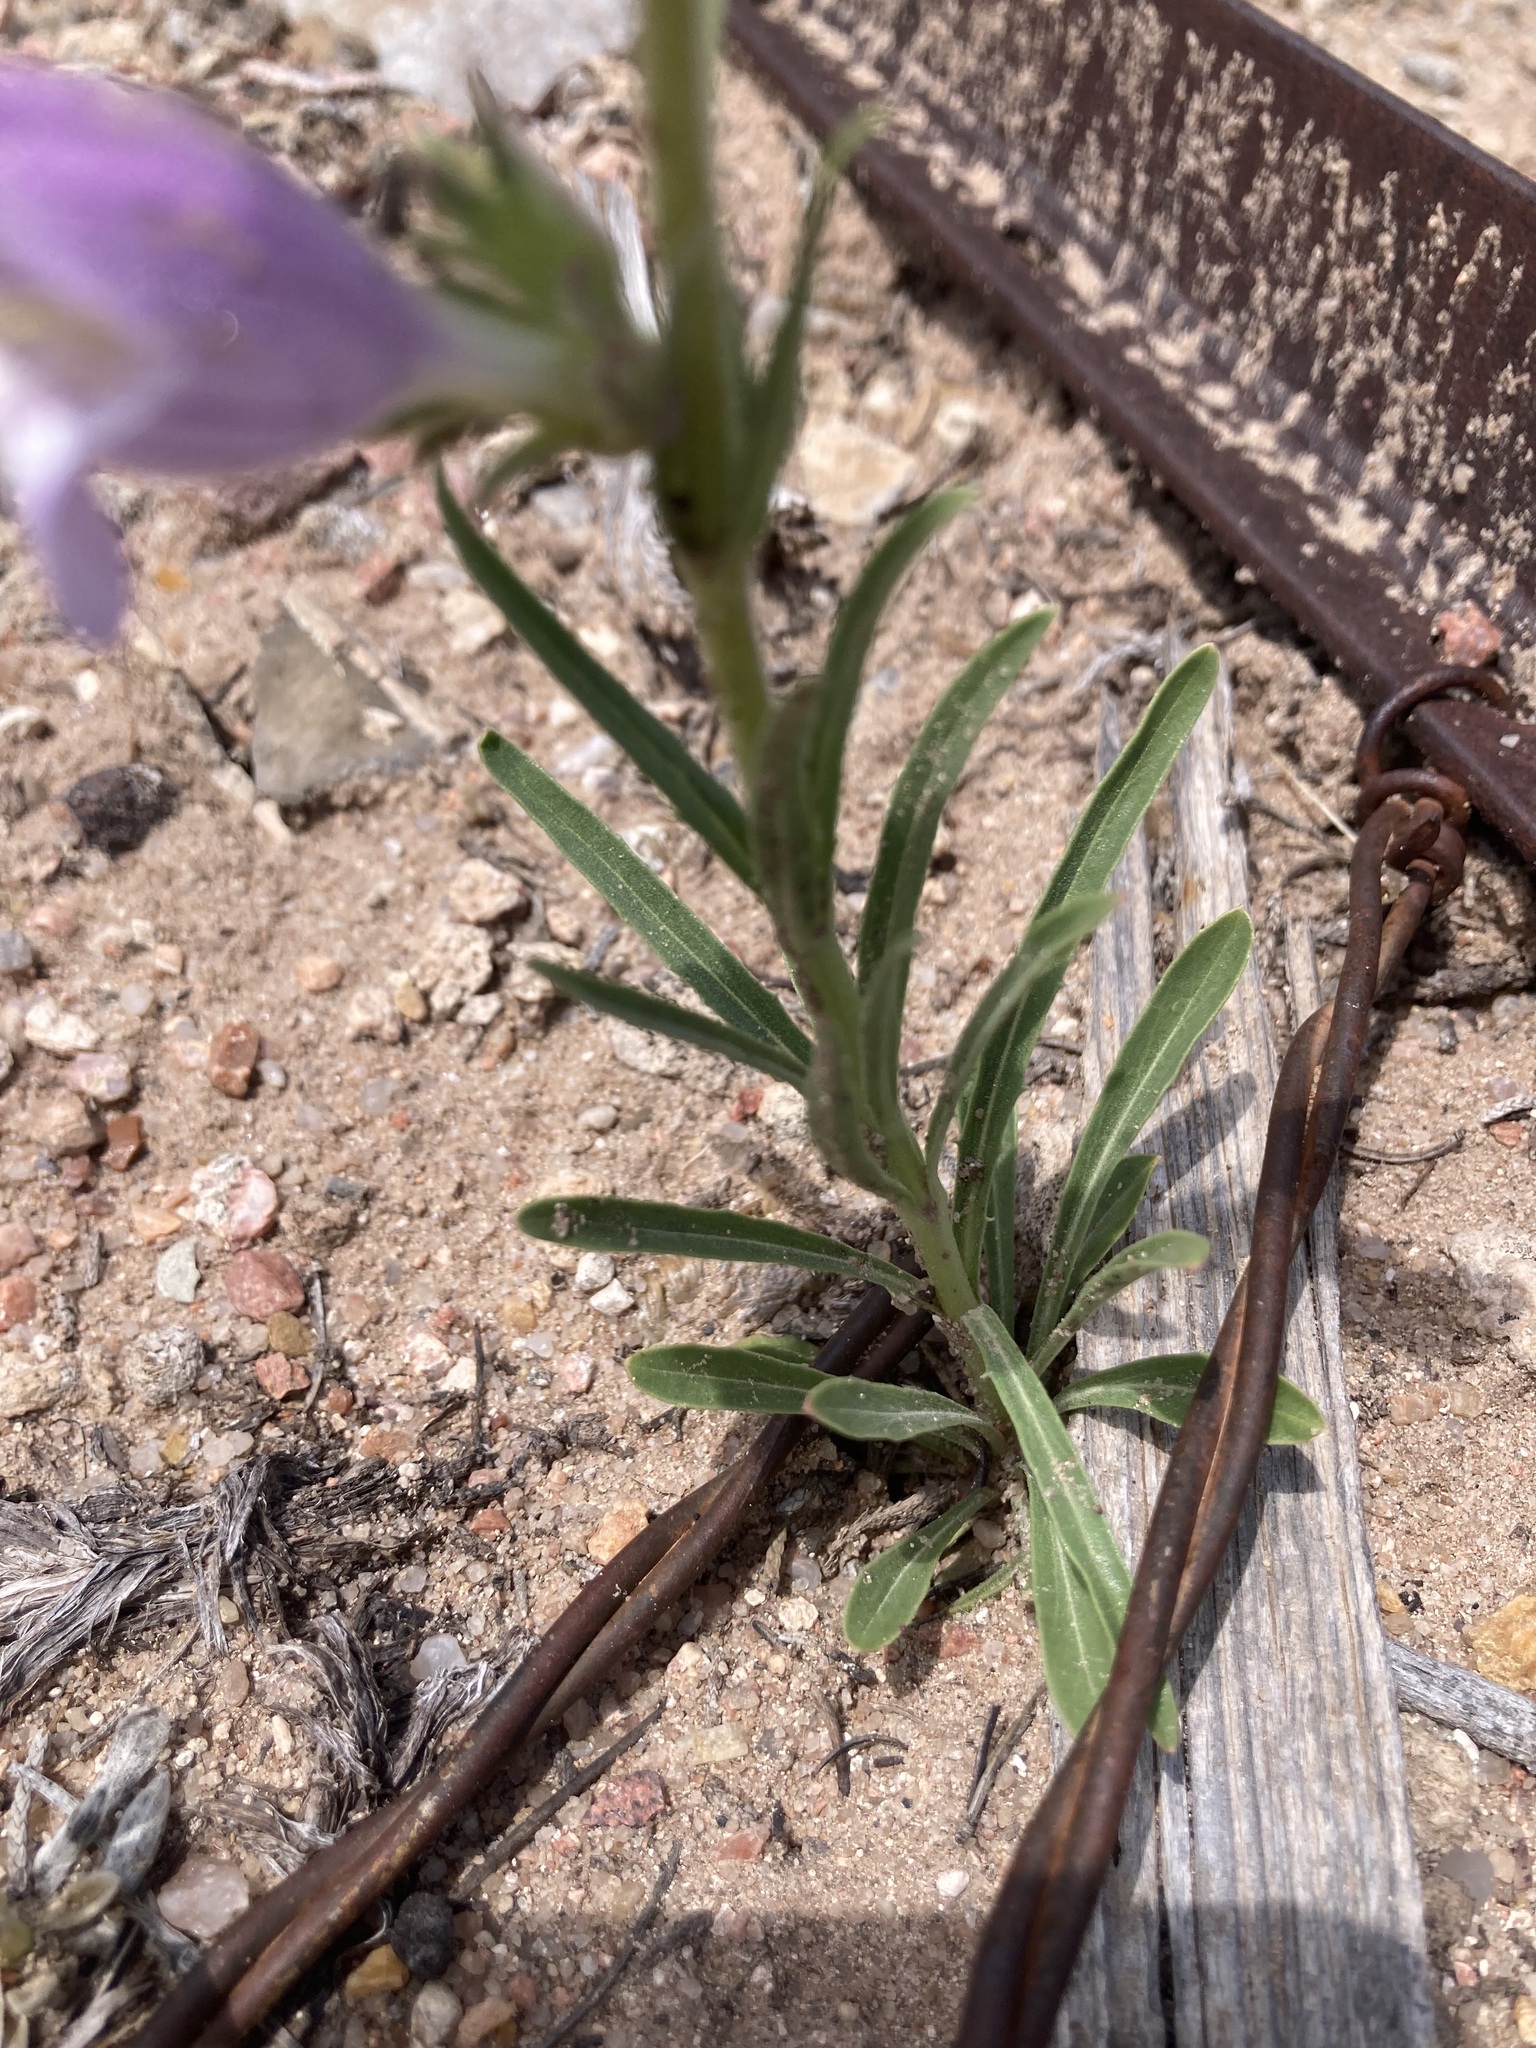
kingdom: Plantae
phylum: Tracheophyta
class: Magnoliopsida
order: Lamiales
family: Plantaginaceae
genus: Penstemon
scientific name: Penstemon jamesii
